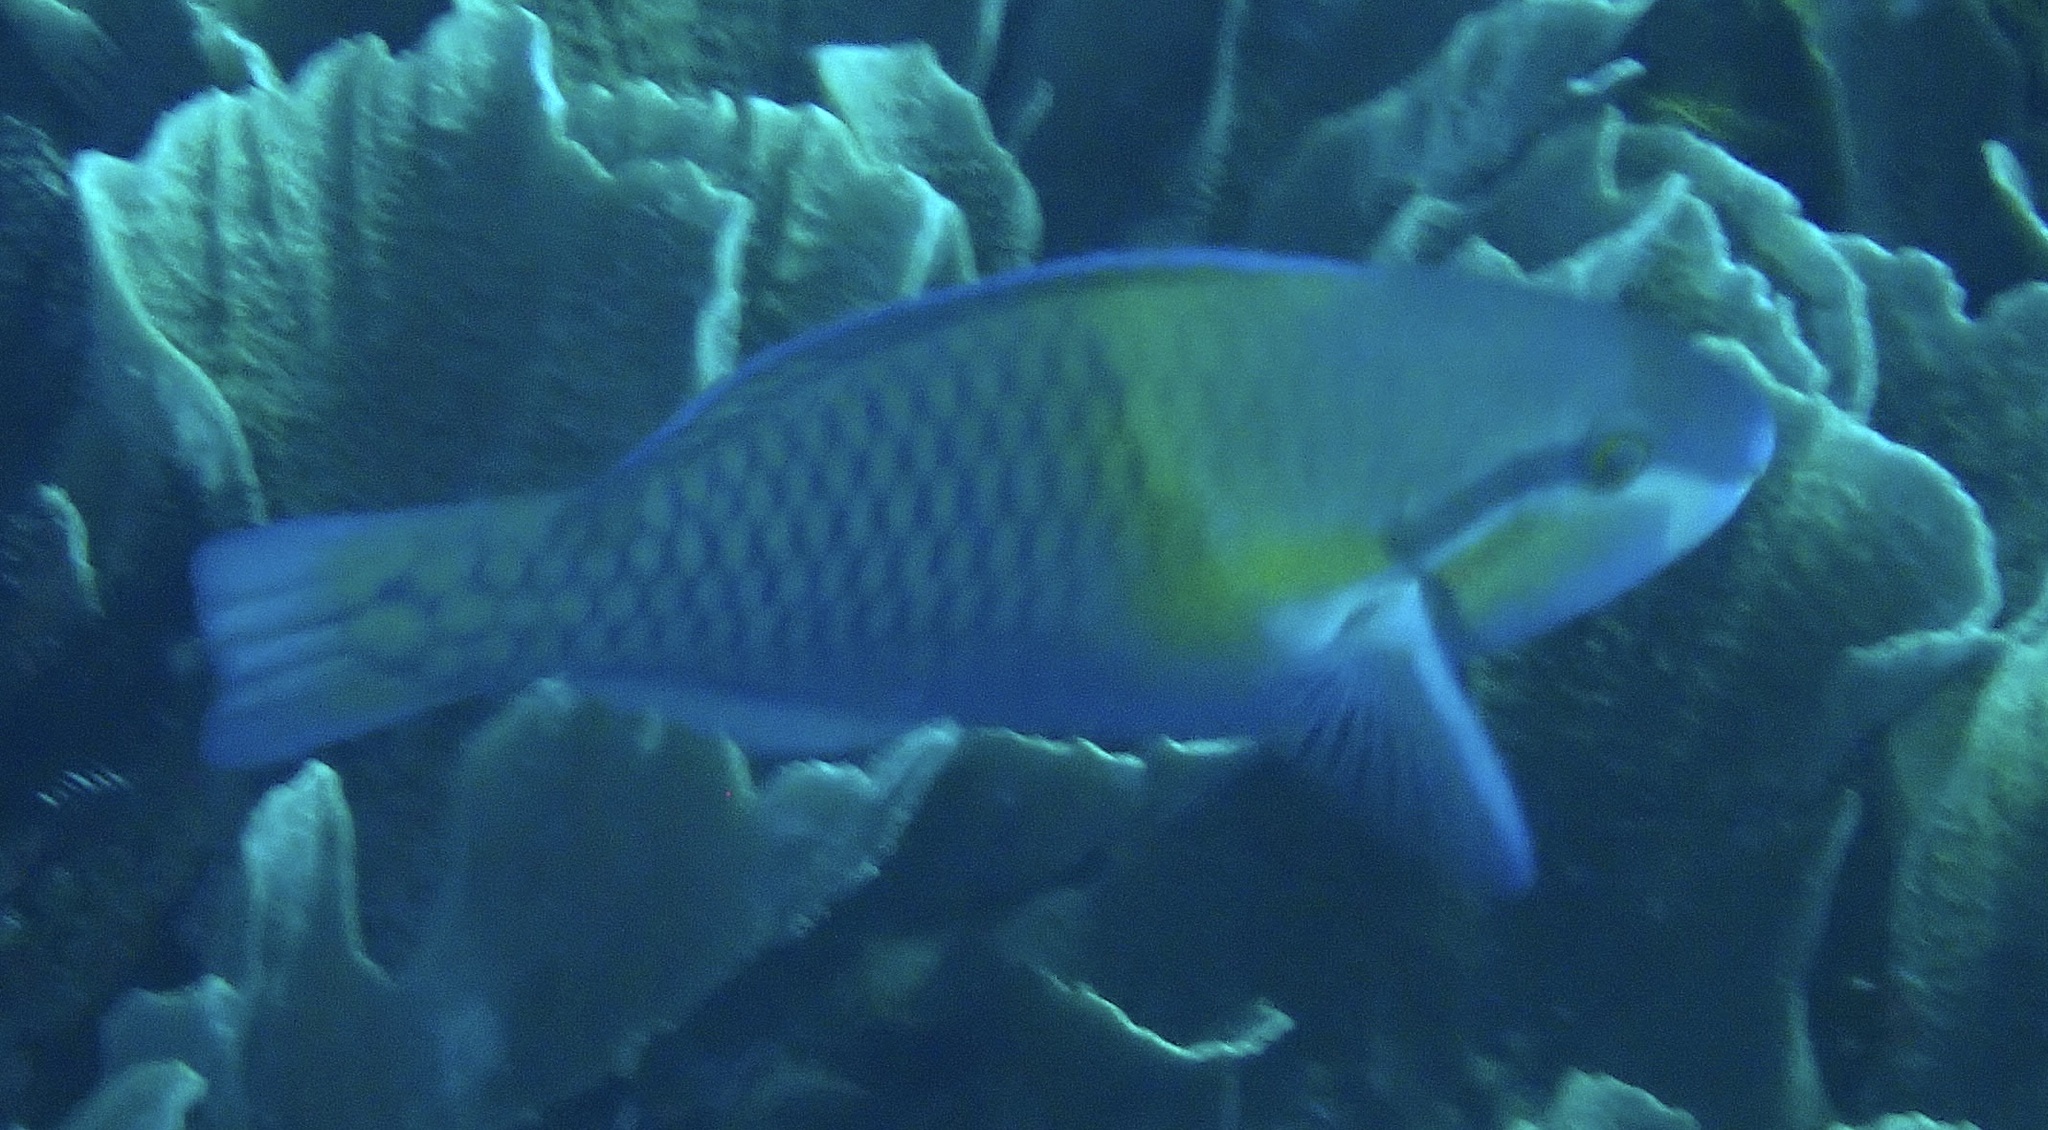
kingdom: Animalia
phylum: Chordata
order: Perciformes
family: Scaridae
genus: Scarus
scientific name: Scarus dimidiatus
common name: Yellowbarred parrotfish
